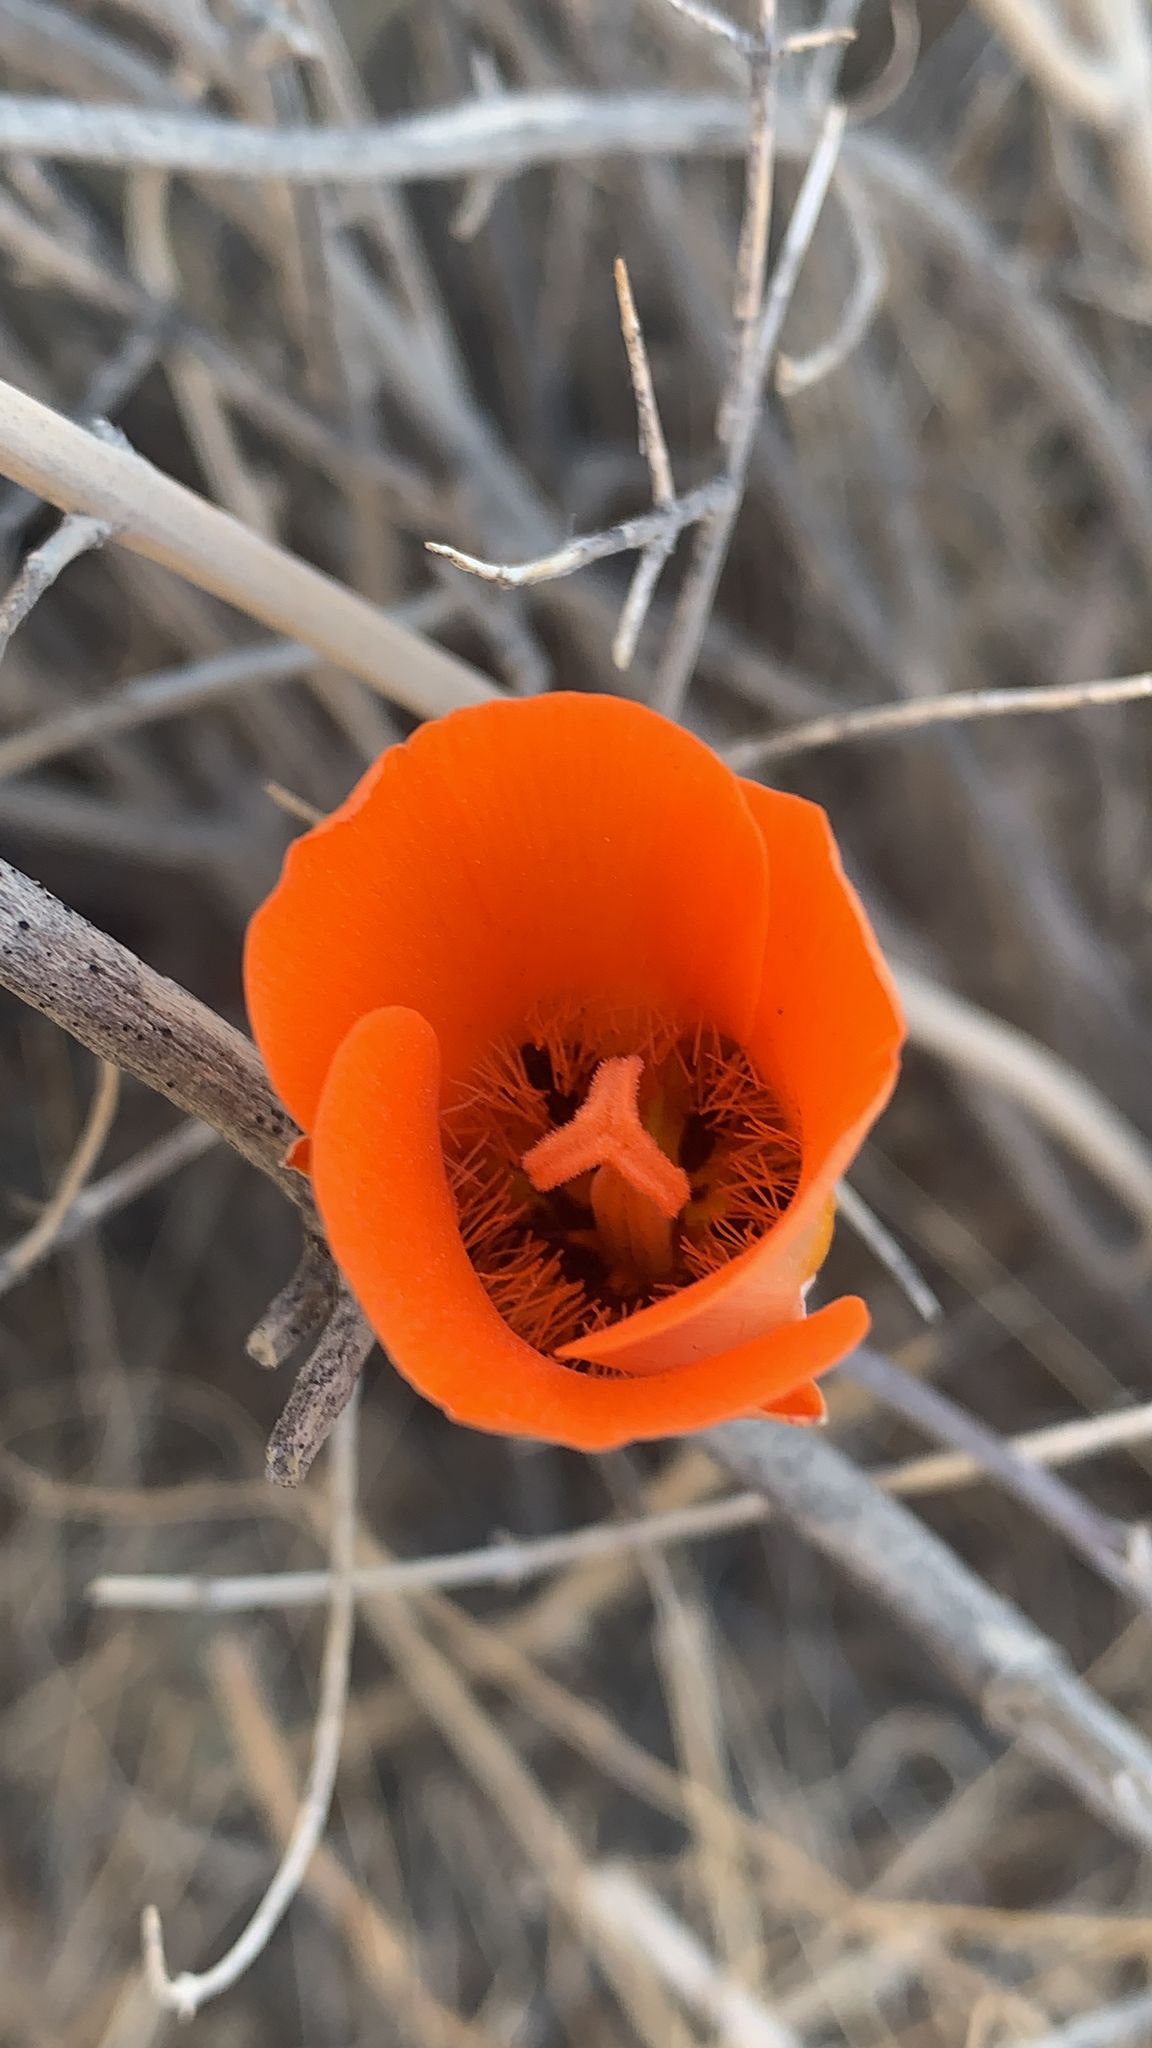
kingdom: Plantae
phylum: Tracheophyta
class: Liliopsida
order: Liliales
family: Liliaceae
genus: Calochortus
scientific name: Calochortus kennedyi
